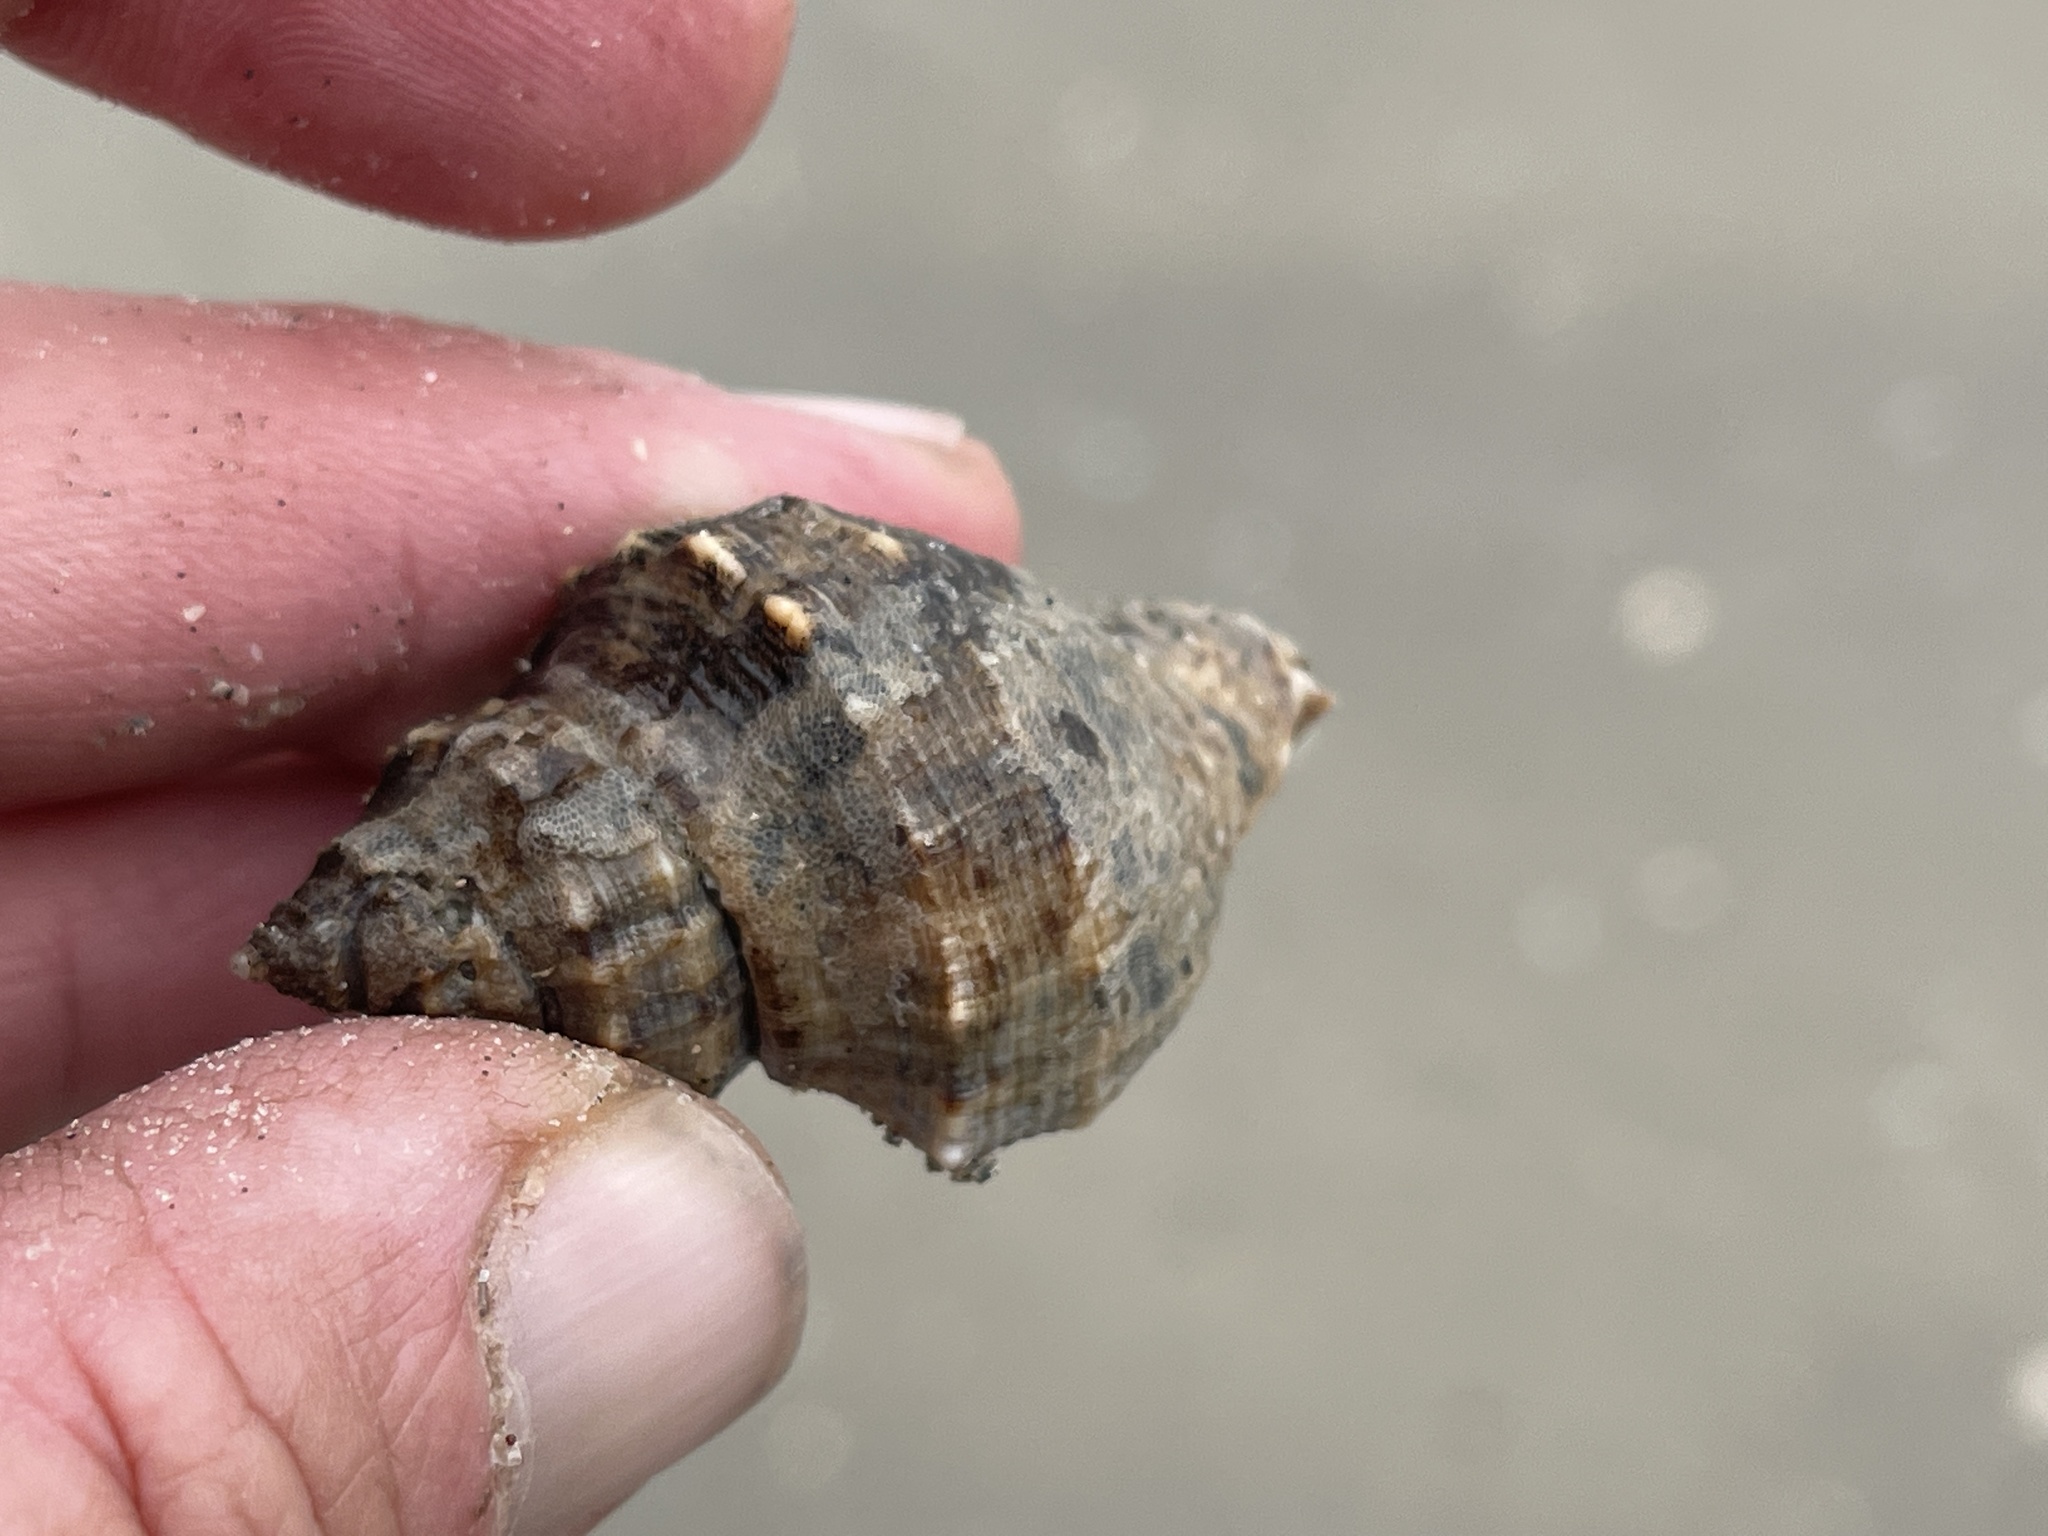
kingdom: Animalia
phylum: Arthropoda
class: Malacostraca
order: Decapoda
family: Diogenidae
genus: Clibanarius
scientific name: Clibanarius vittatus
